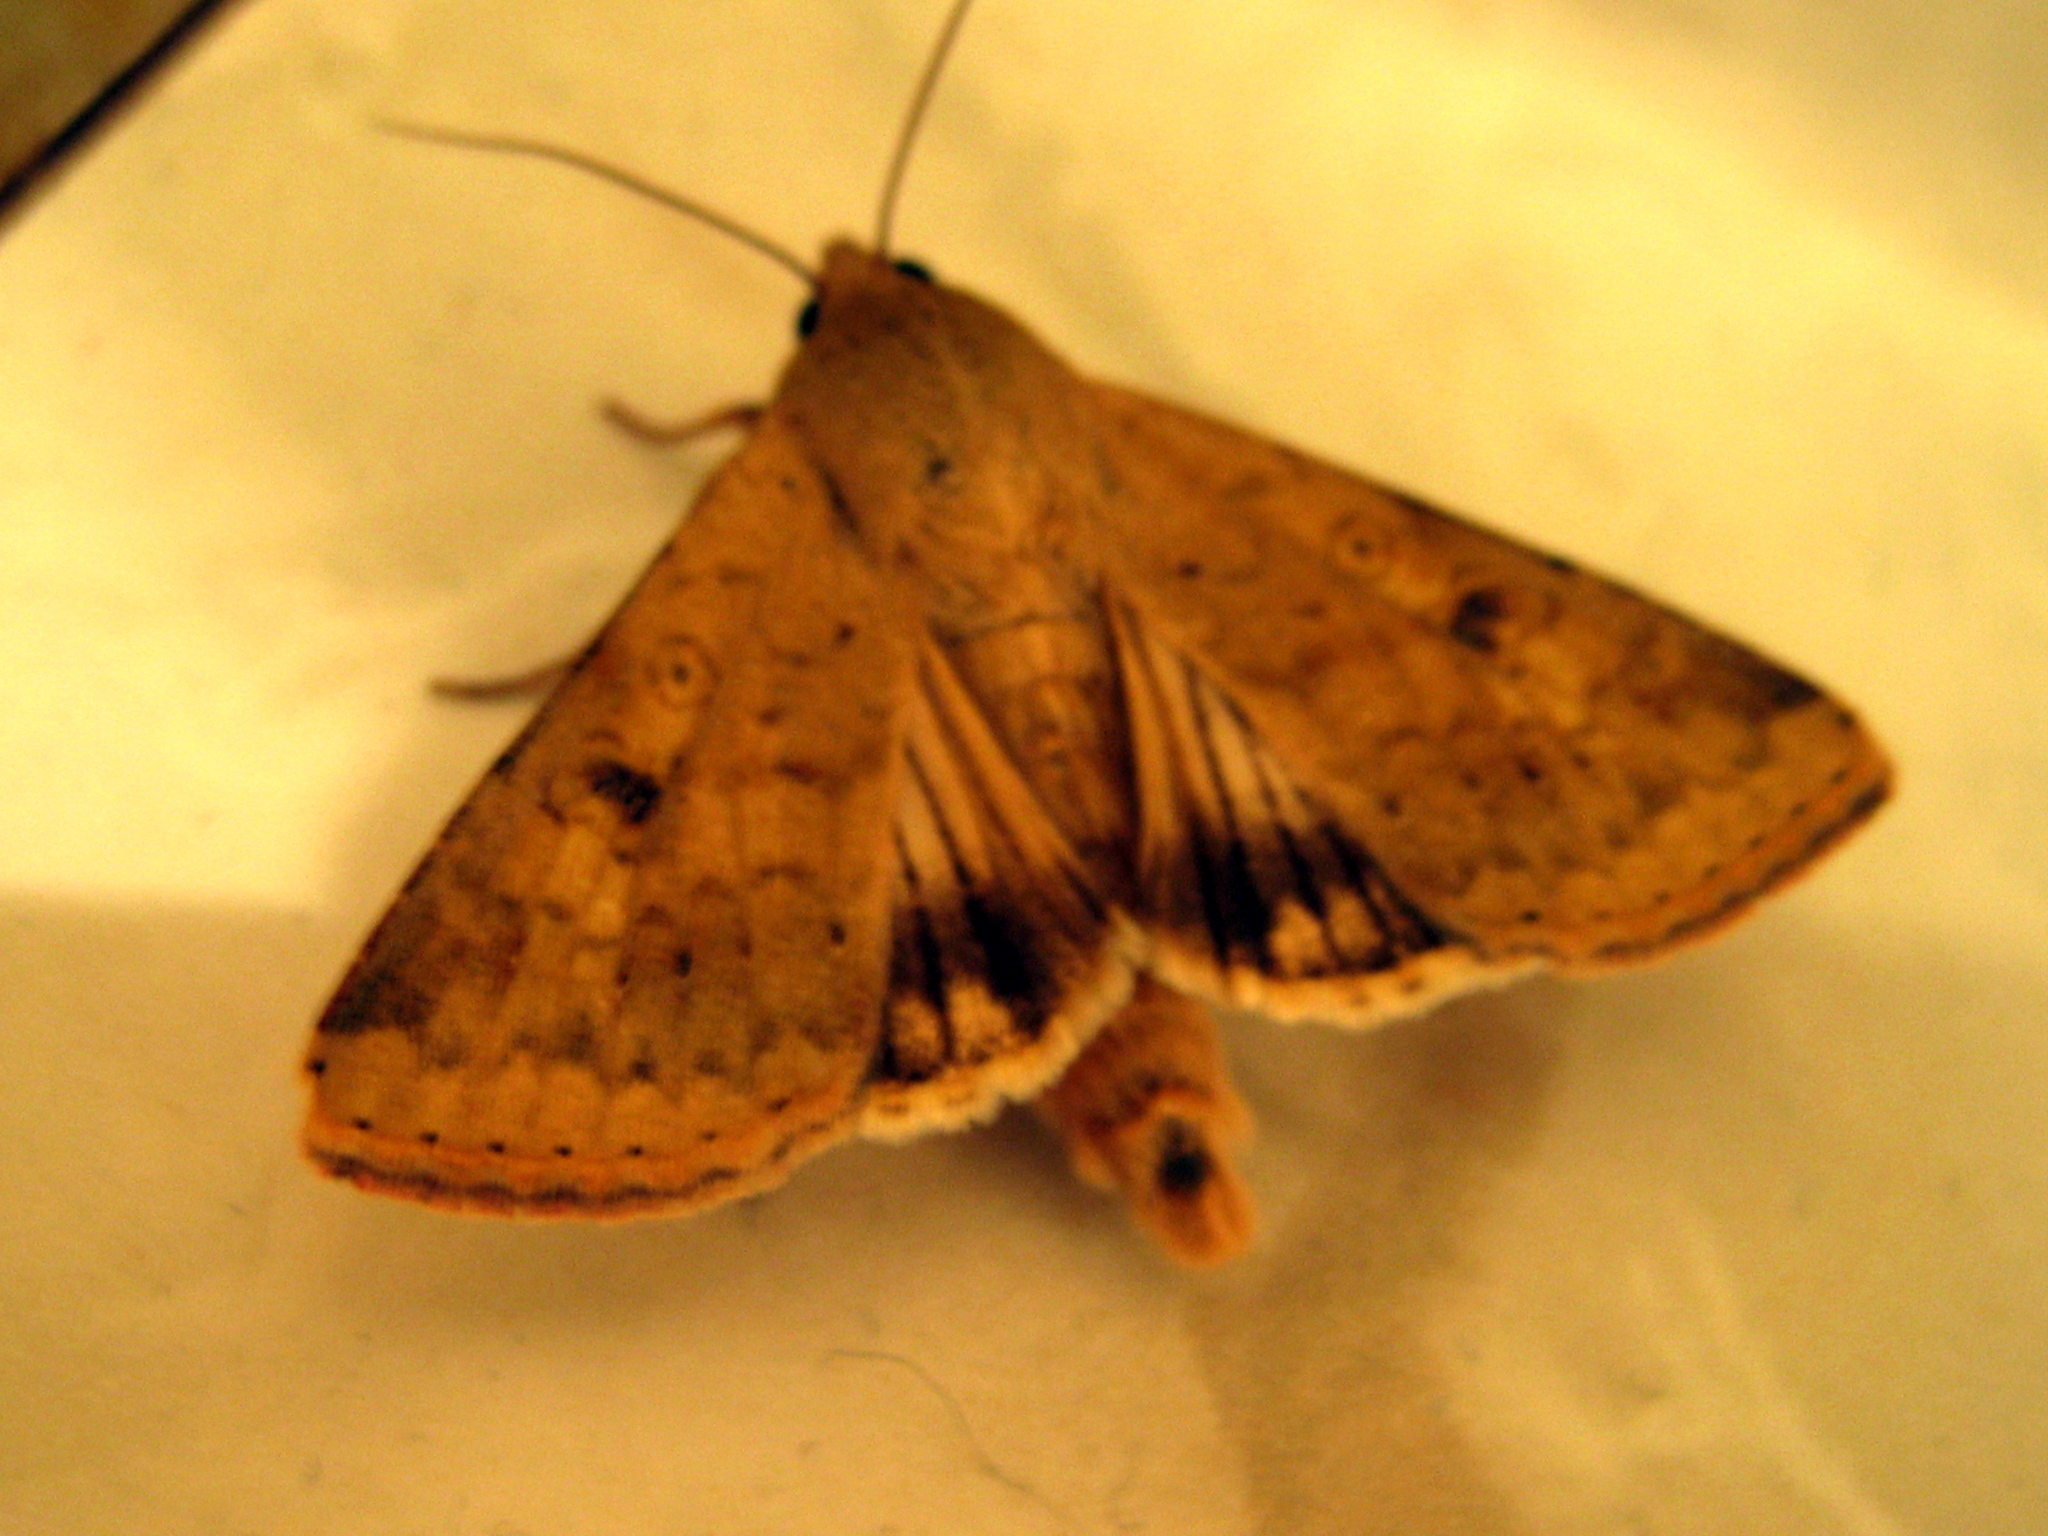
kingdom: Animalia
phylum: Arthropoda
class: Insecta
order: Lepidoptera
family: Noctuidae
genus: Helicoverpa
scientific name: Helicoverpa zea
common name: Bollworm
